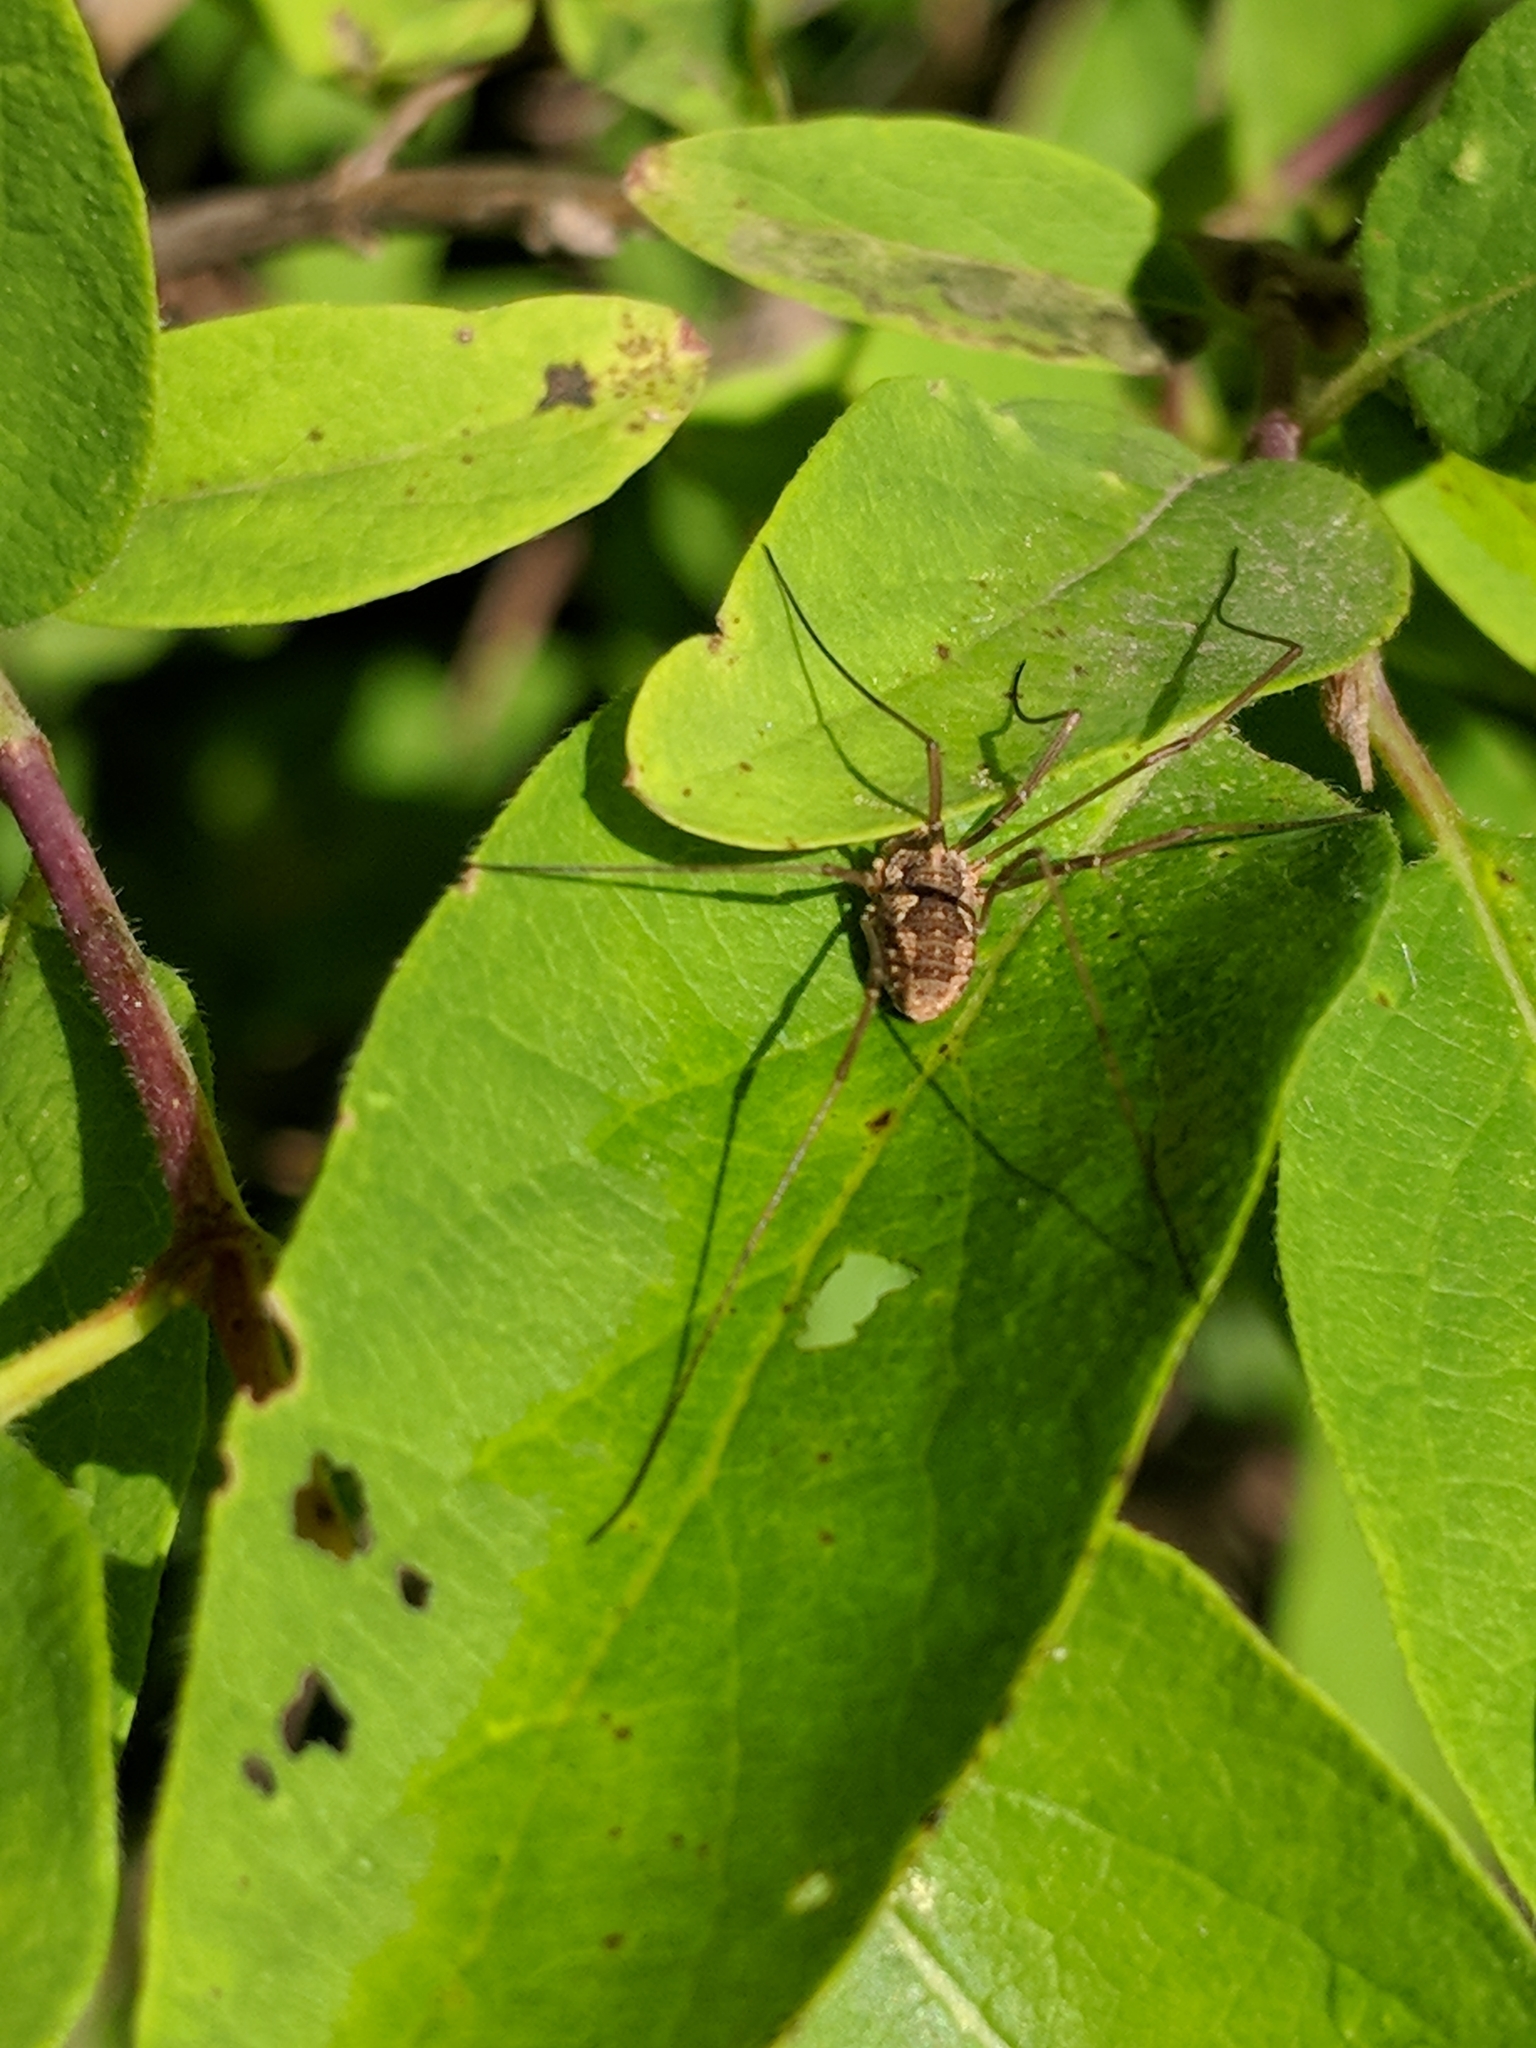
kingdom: Animalia
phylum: Arthropoda
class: Arachnida
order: Opiliones
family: Phalangiidae
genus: Phalangium
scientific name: Phalangium opilio
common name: Daddy longleg
